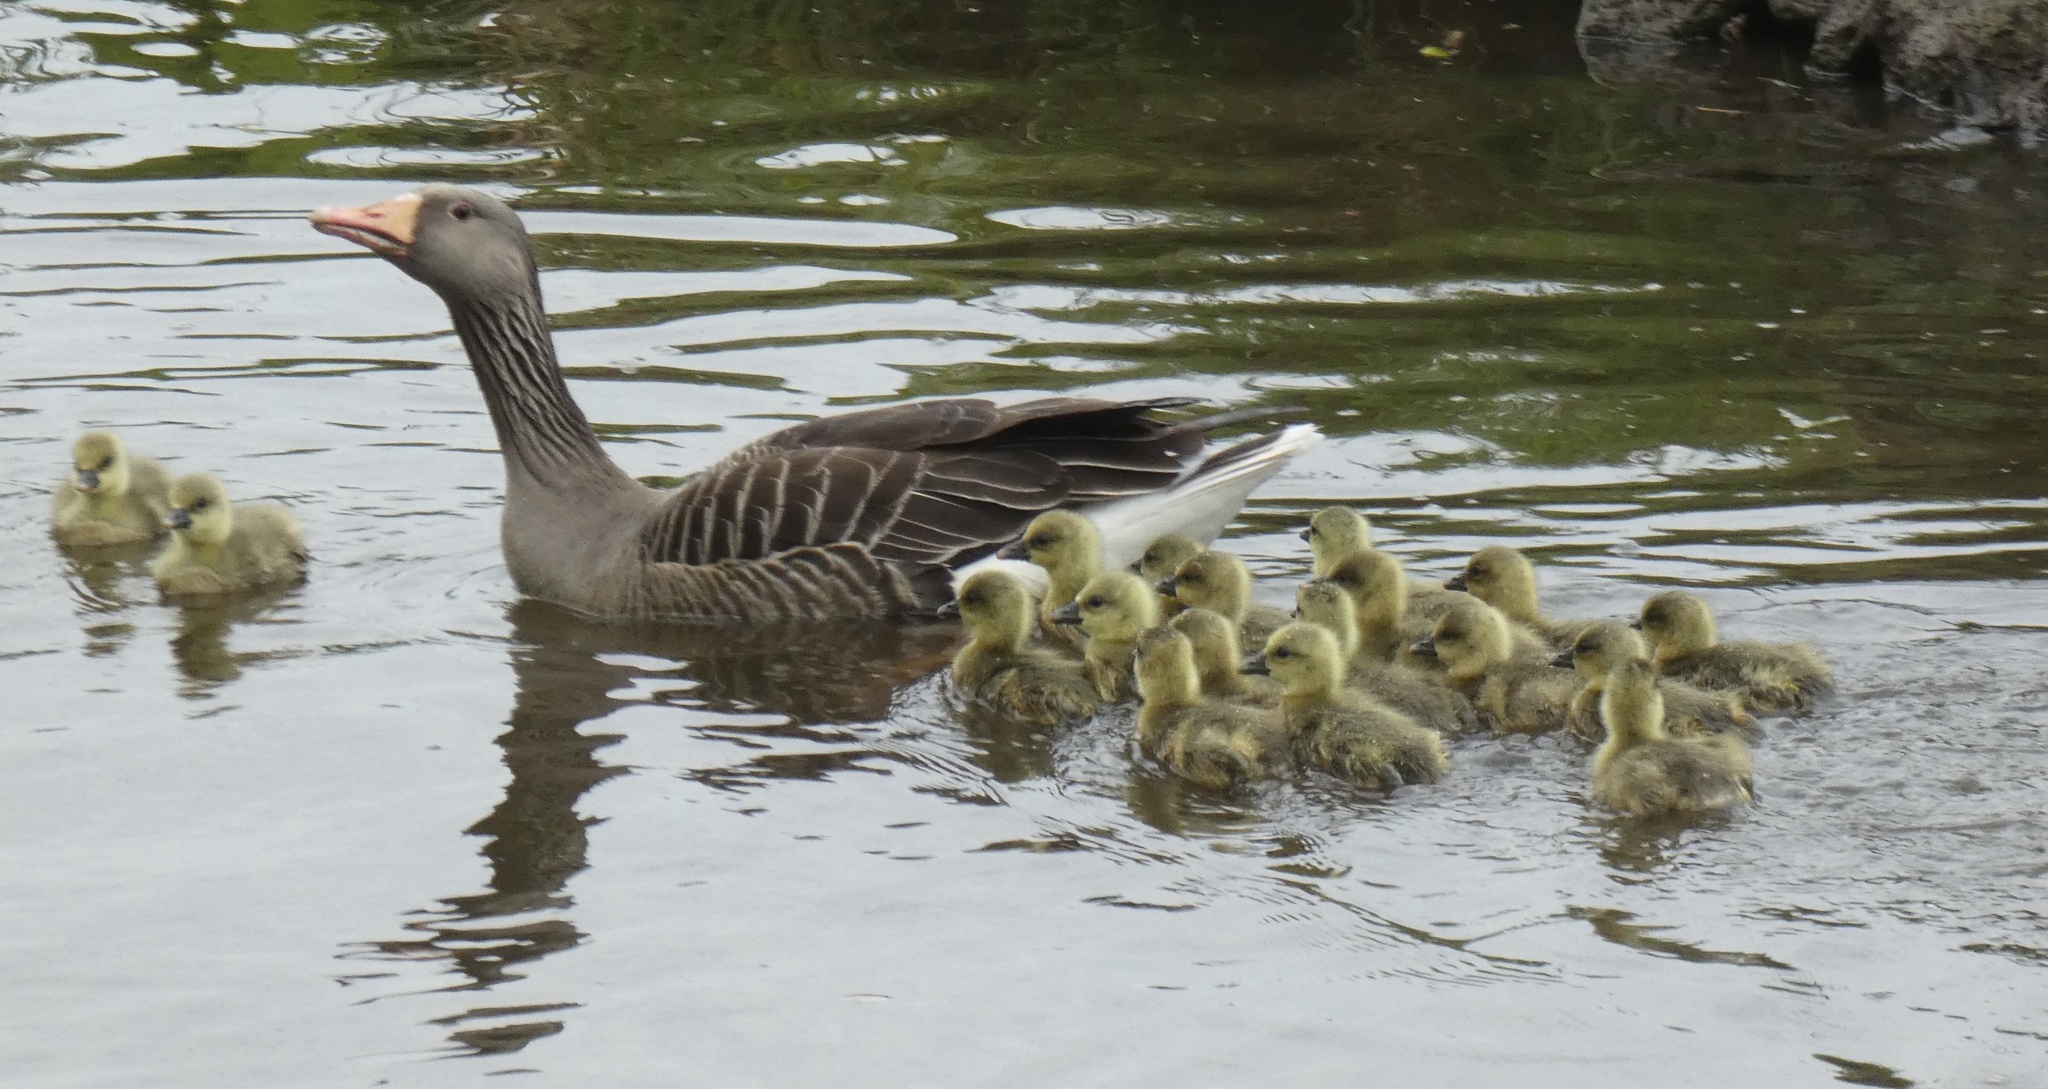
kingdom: Animalia
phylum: Chordata
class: Aves
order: Anseriformes
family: Anatidae
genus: Anser
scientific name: Anser anser
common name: Greylag goose
